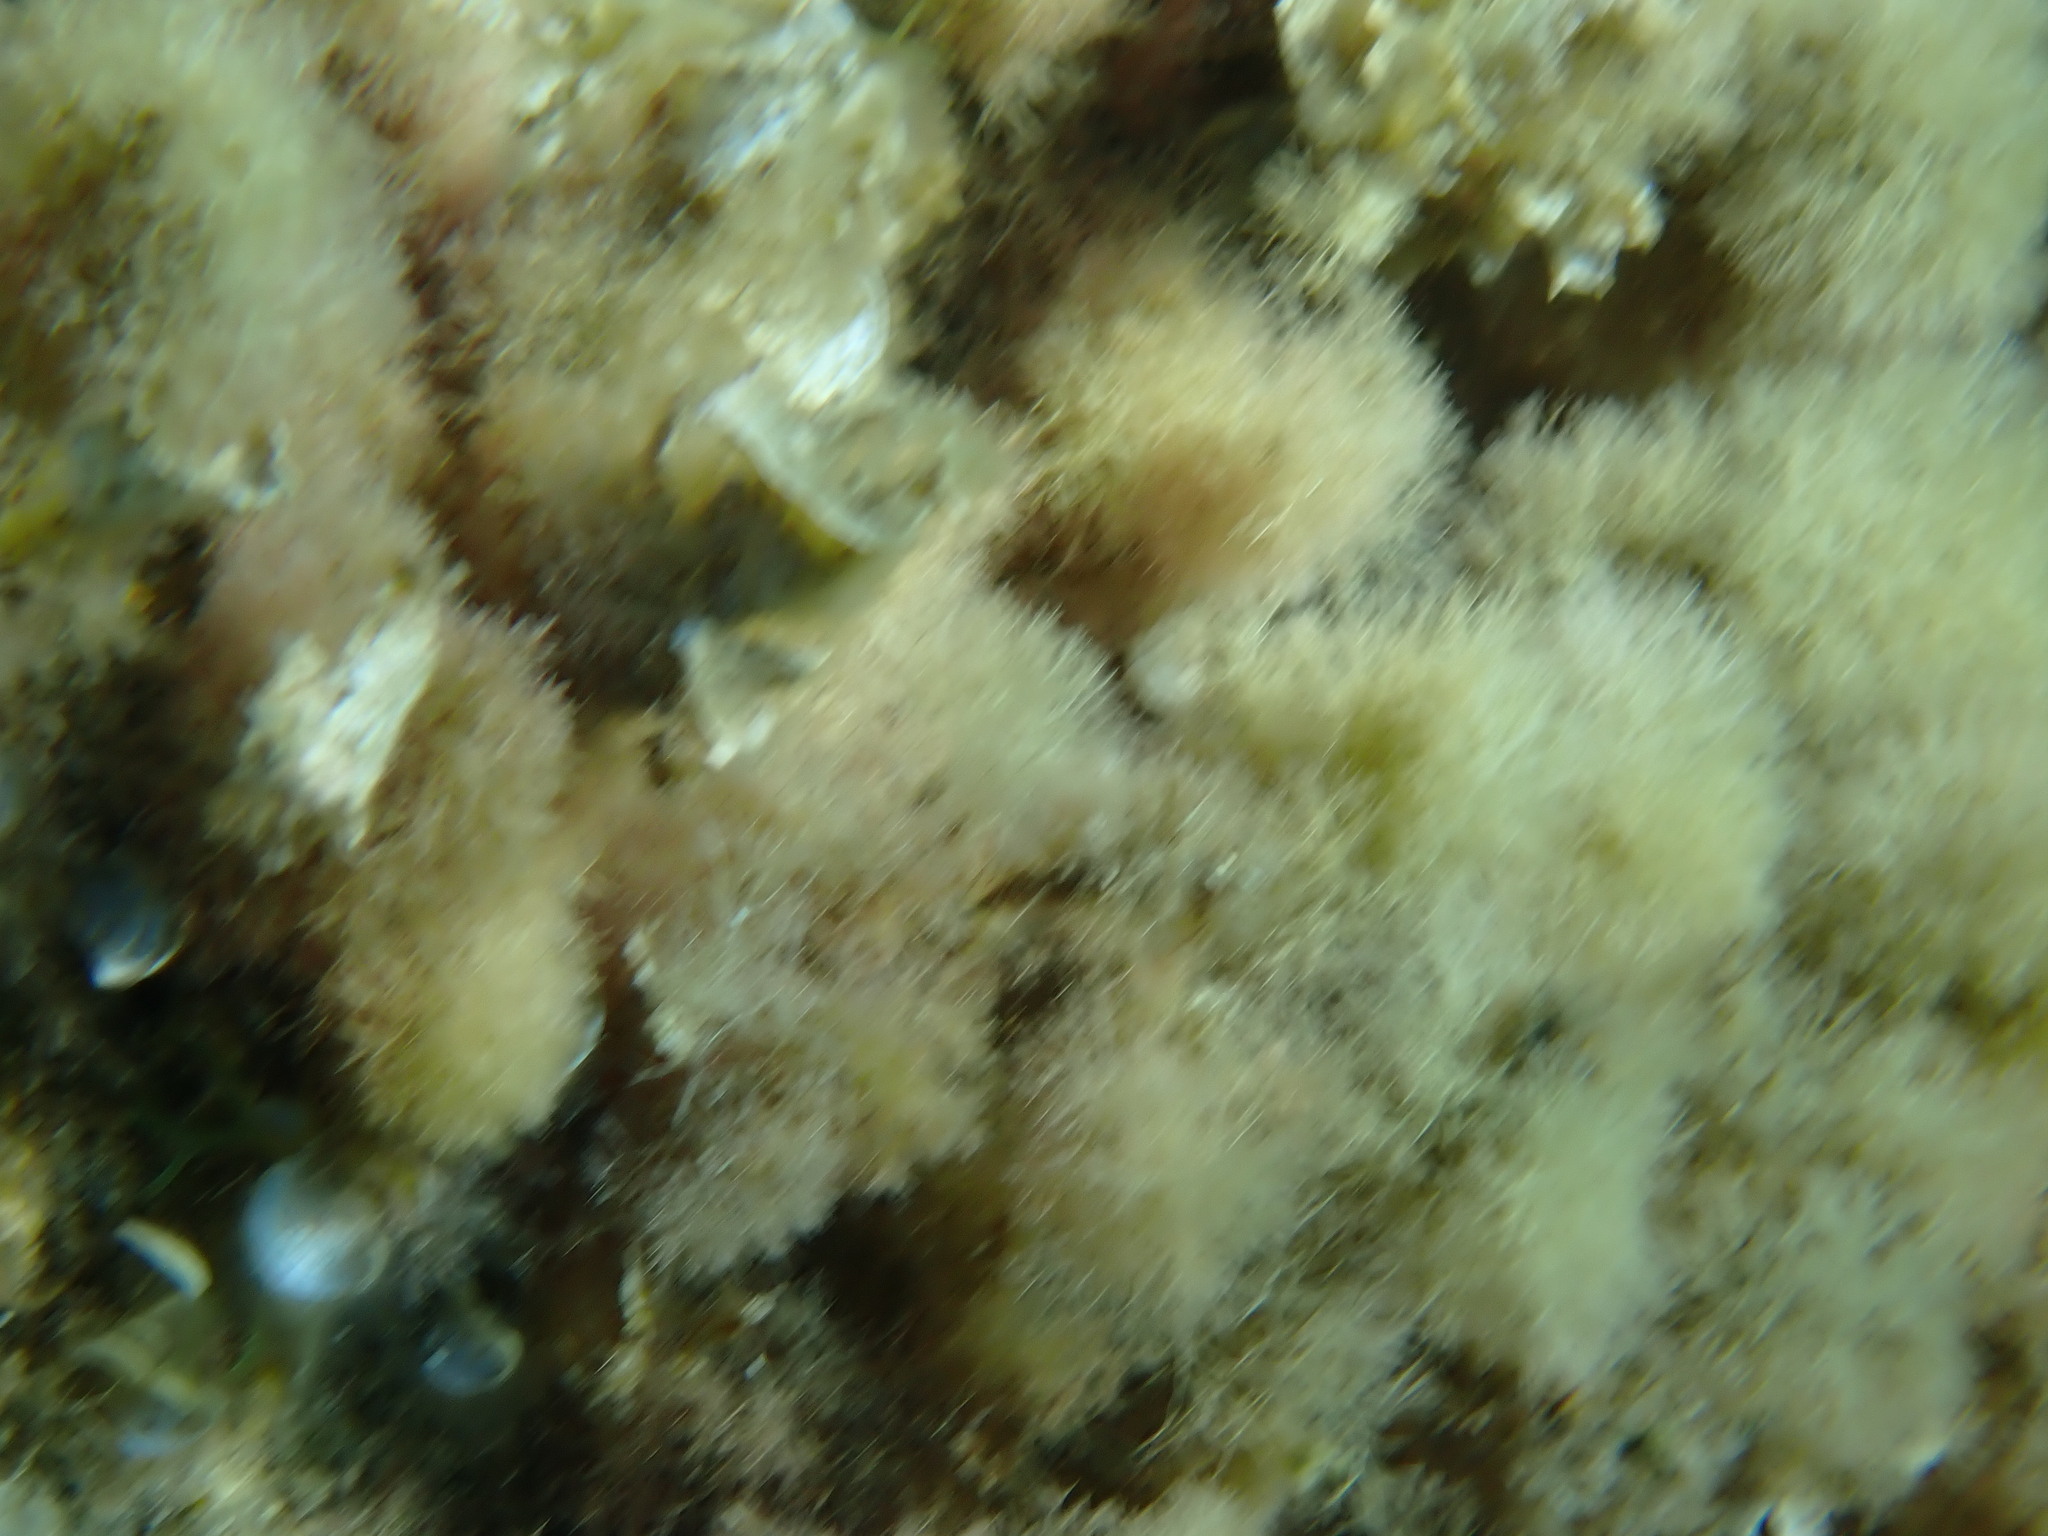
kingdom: Animalia
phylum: Echinodermata
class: Asteroidea
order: Spinulosida
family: Echinasteridae
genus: Echinaster
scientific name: Echinaster sepositus
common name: Red starfish
